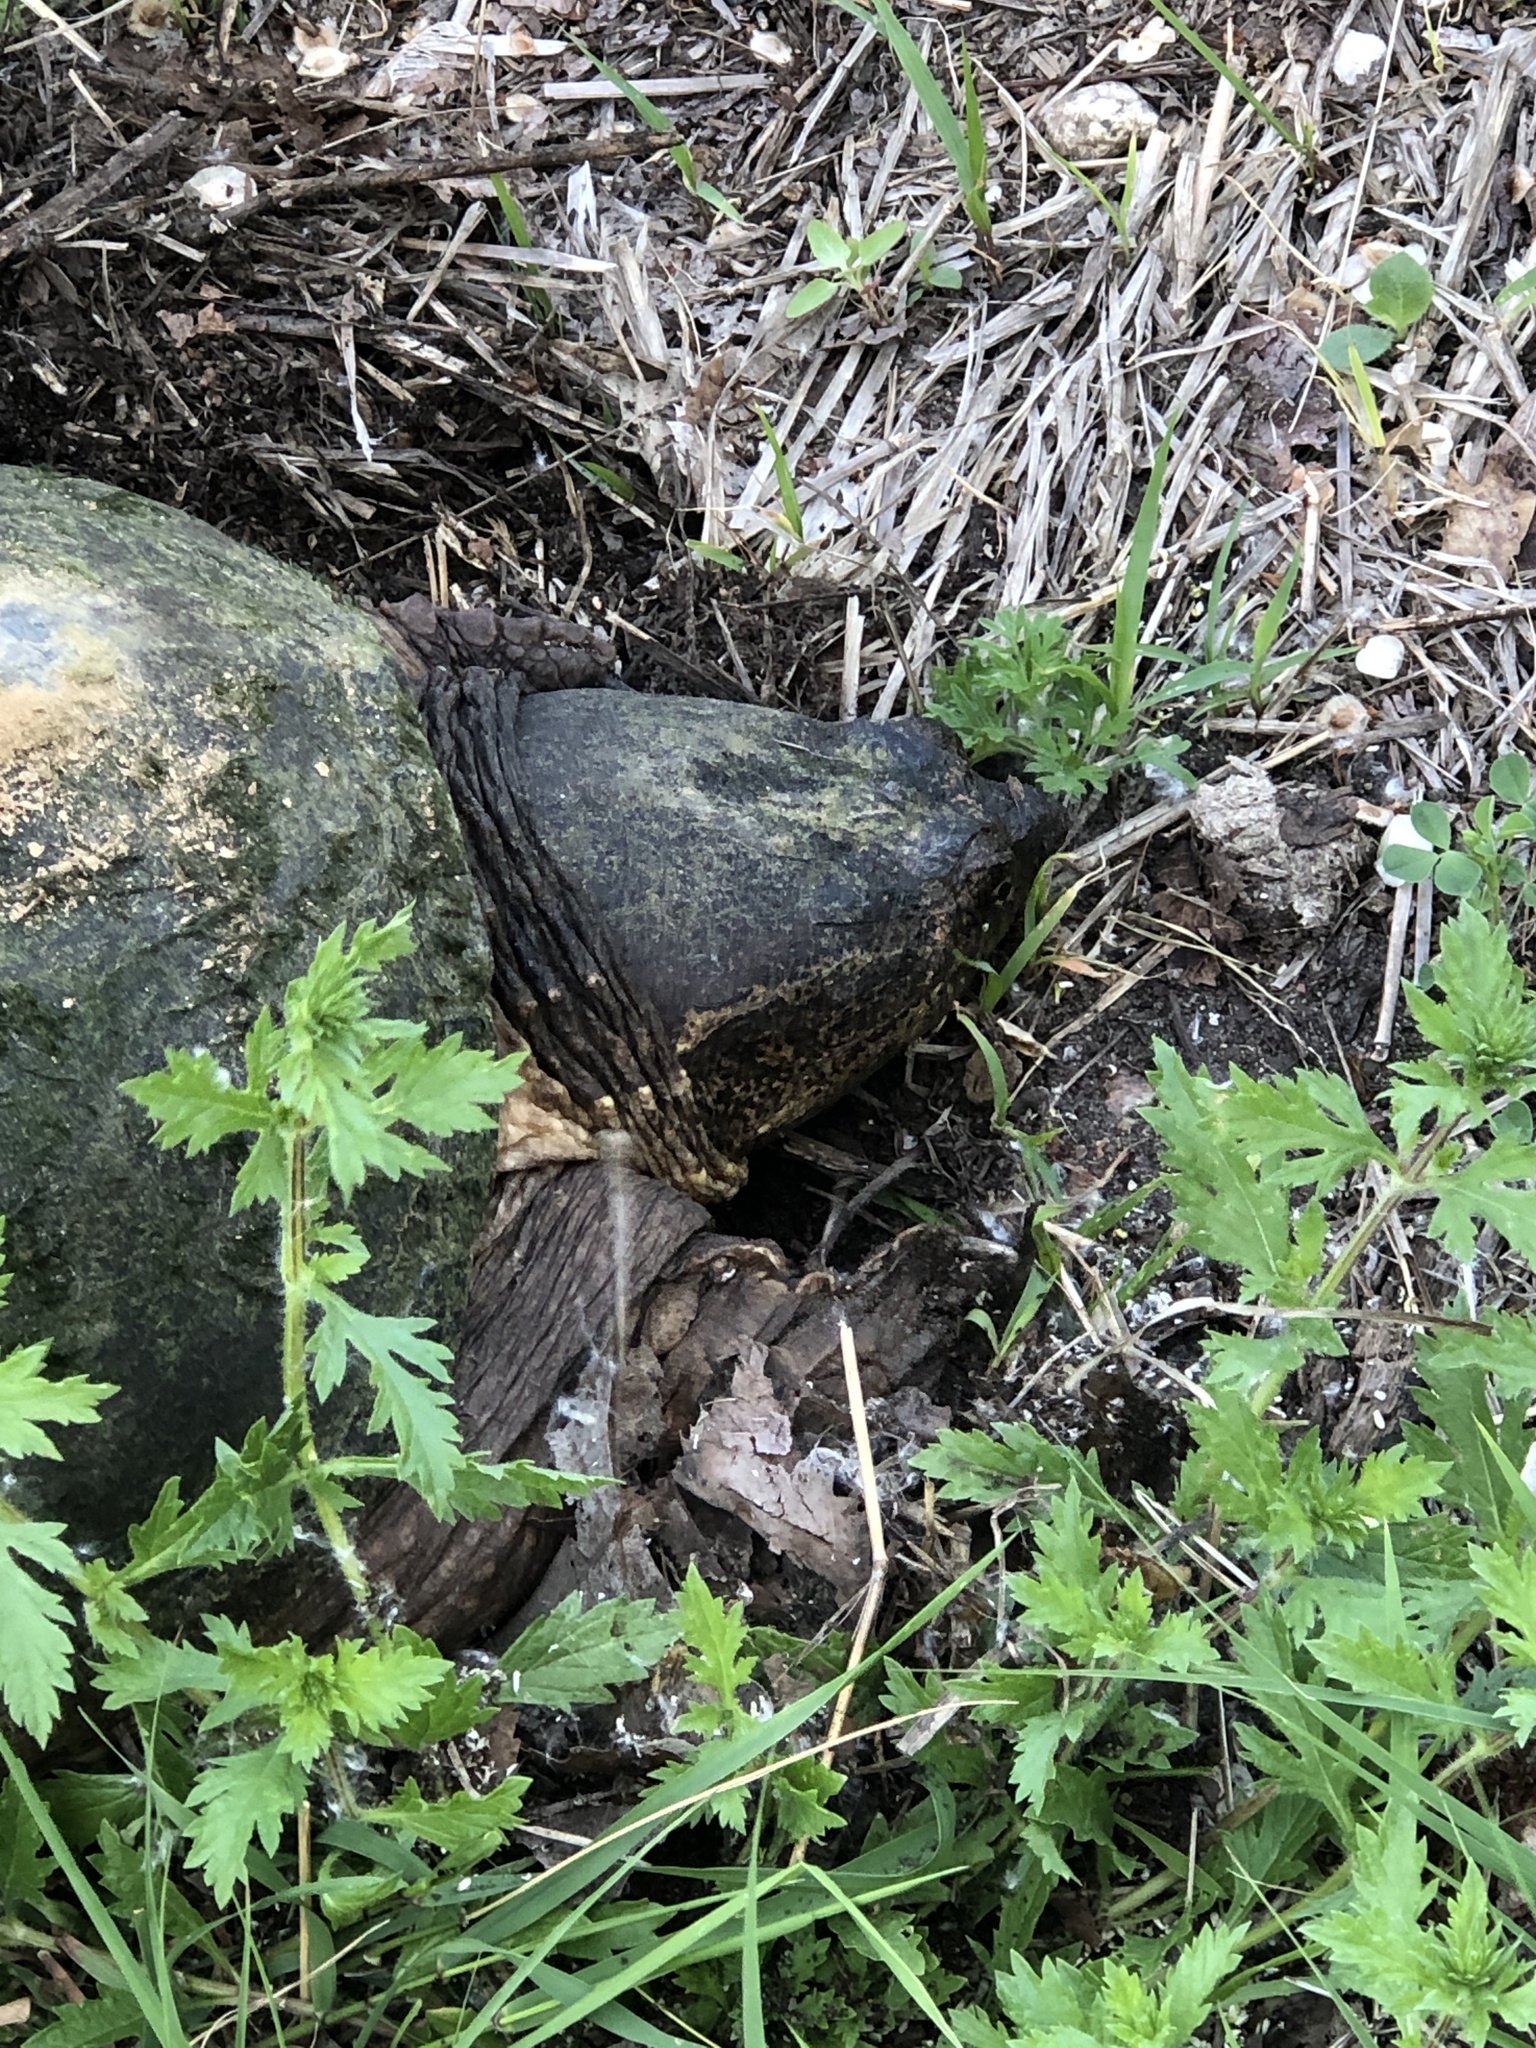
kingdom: Animalia
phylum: Chordata
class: Testudines
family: Chelydridae
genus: Chelydra
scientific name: Chelydra serpentina
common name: Common snapping turtle
